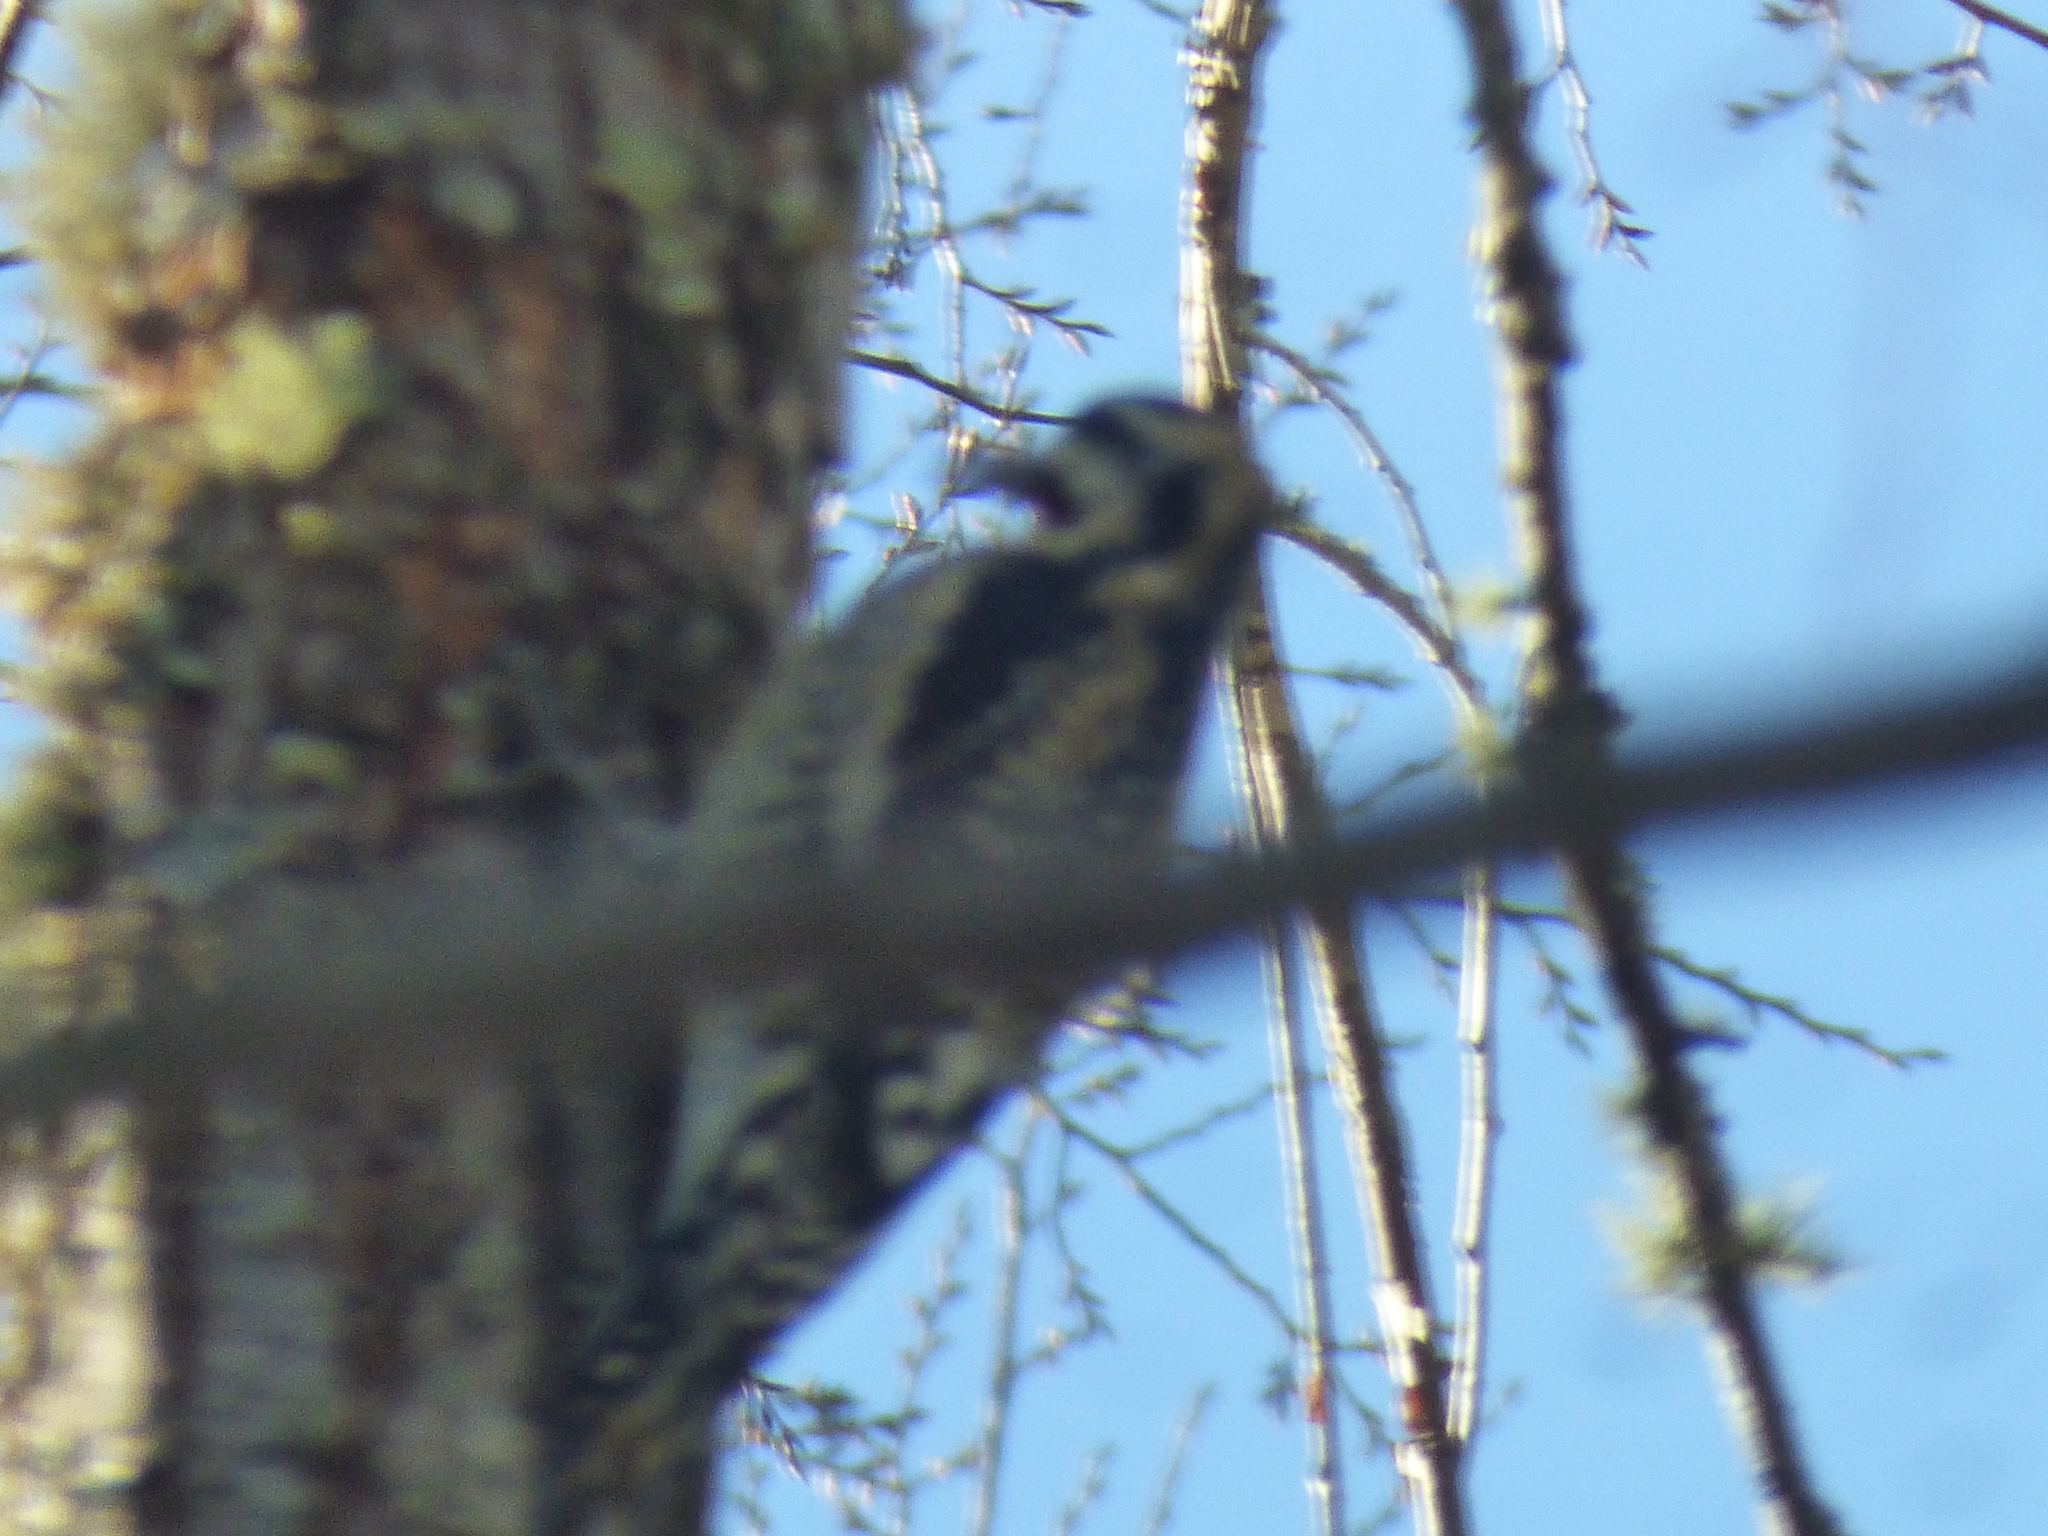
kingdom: Animalia
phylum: Chordata
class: Aves
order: Piciformes
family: Picidae
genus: Sphyrapicus
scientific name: Sphyrapicus varius
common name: Yellow-bellied sapsucker
